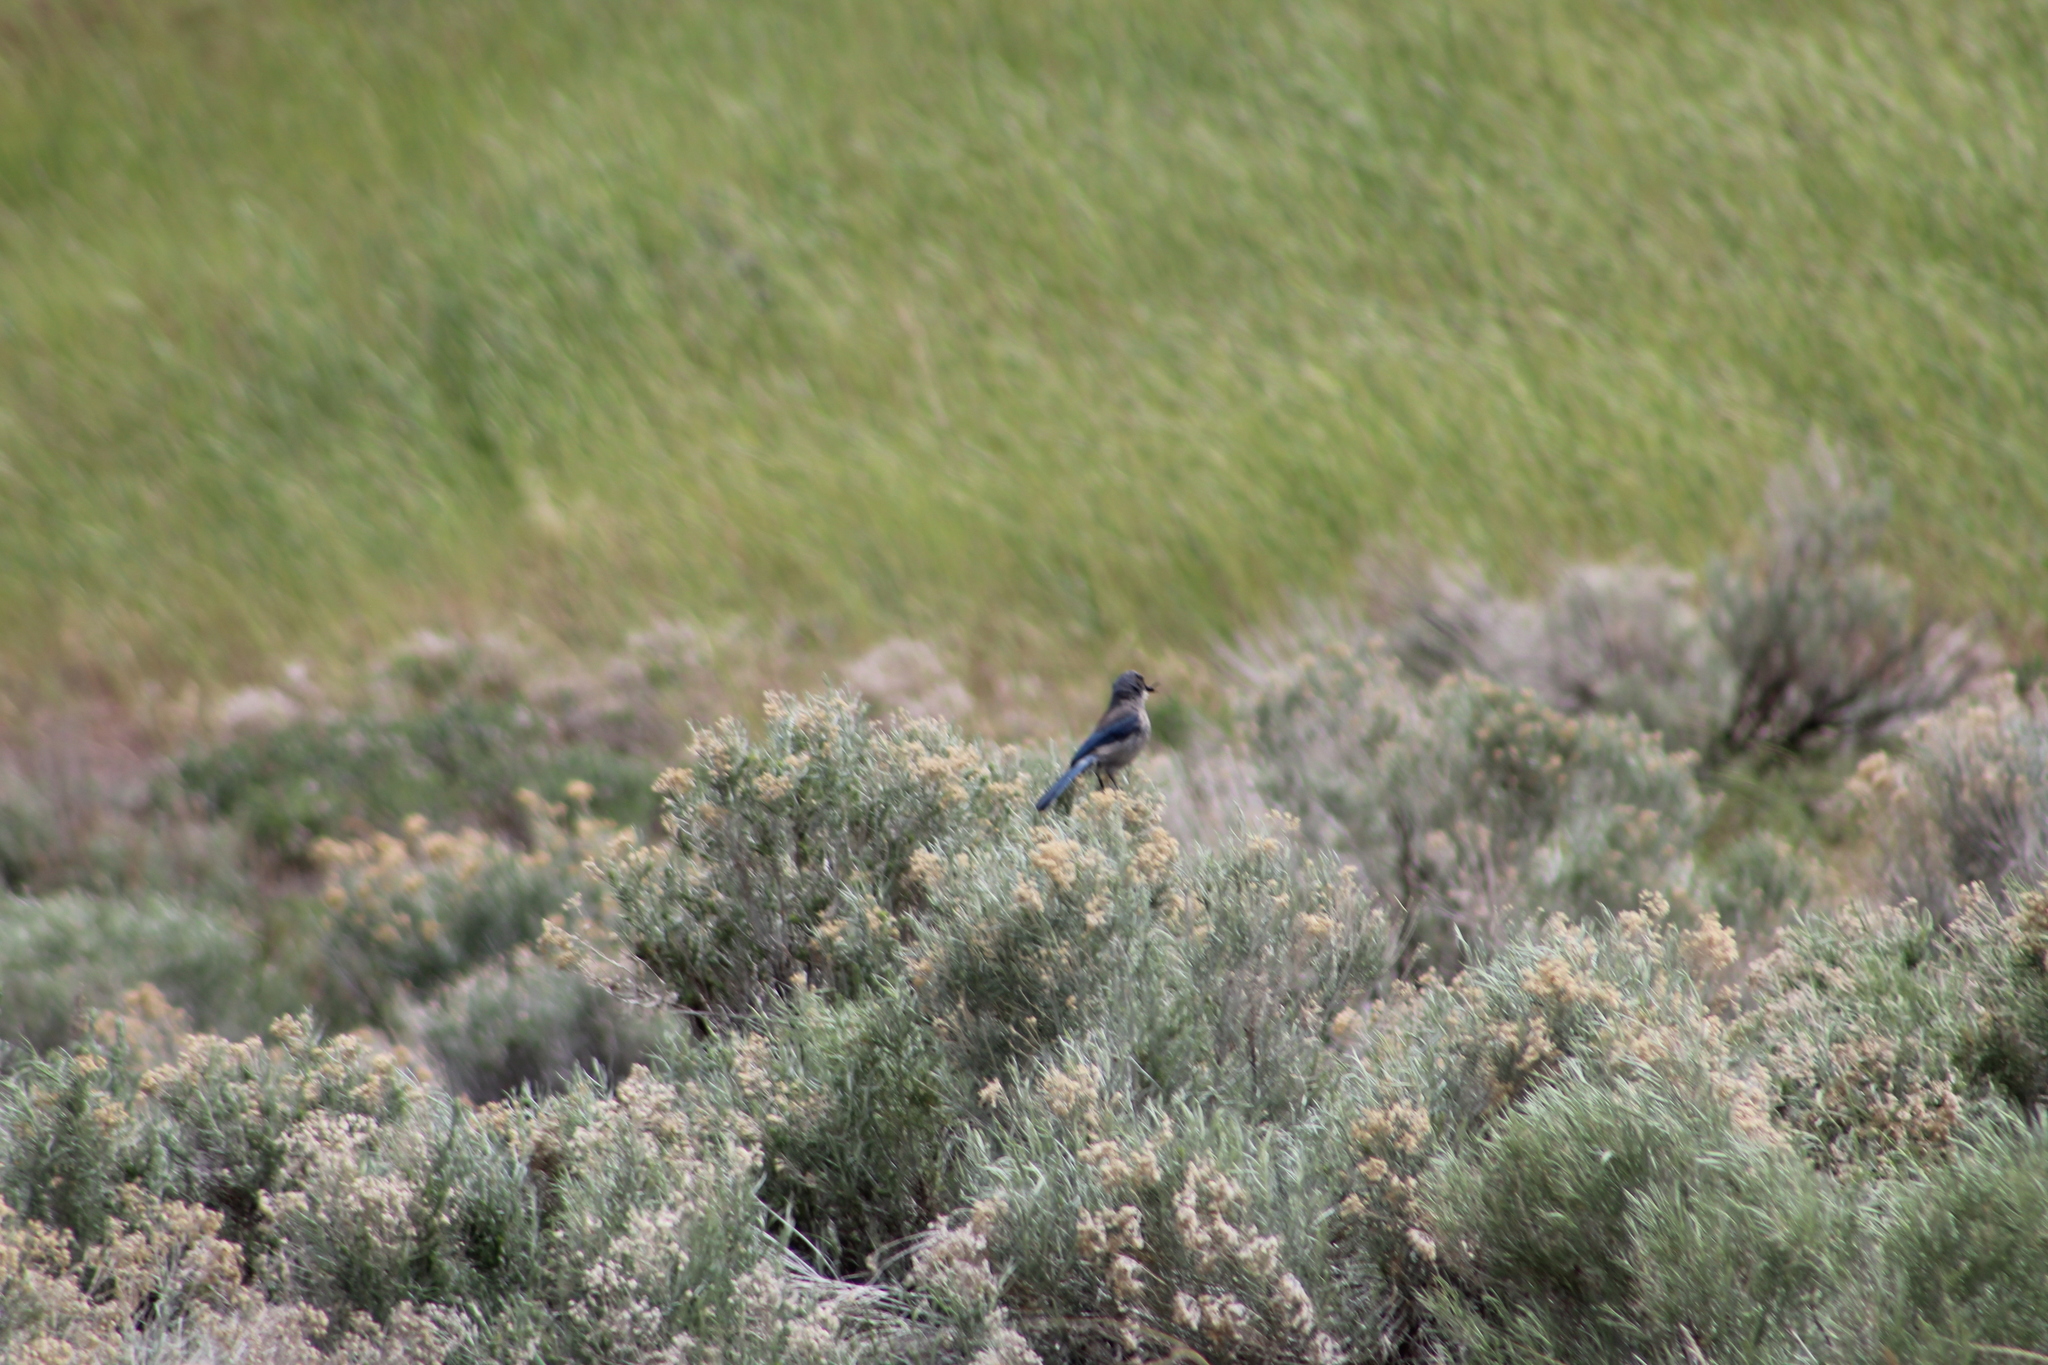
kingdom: Animalia
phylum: Chordata
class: Aves
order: Passeriformes
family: Corvidae
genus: Aphelocoma
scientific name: Aphelocoma woodhouseii
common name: Woodhouse's scrub-jay
